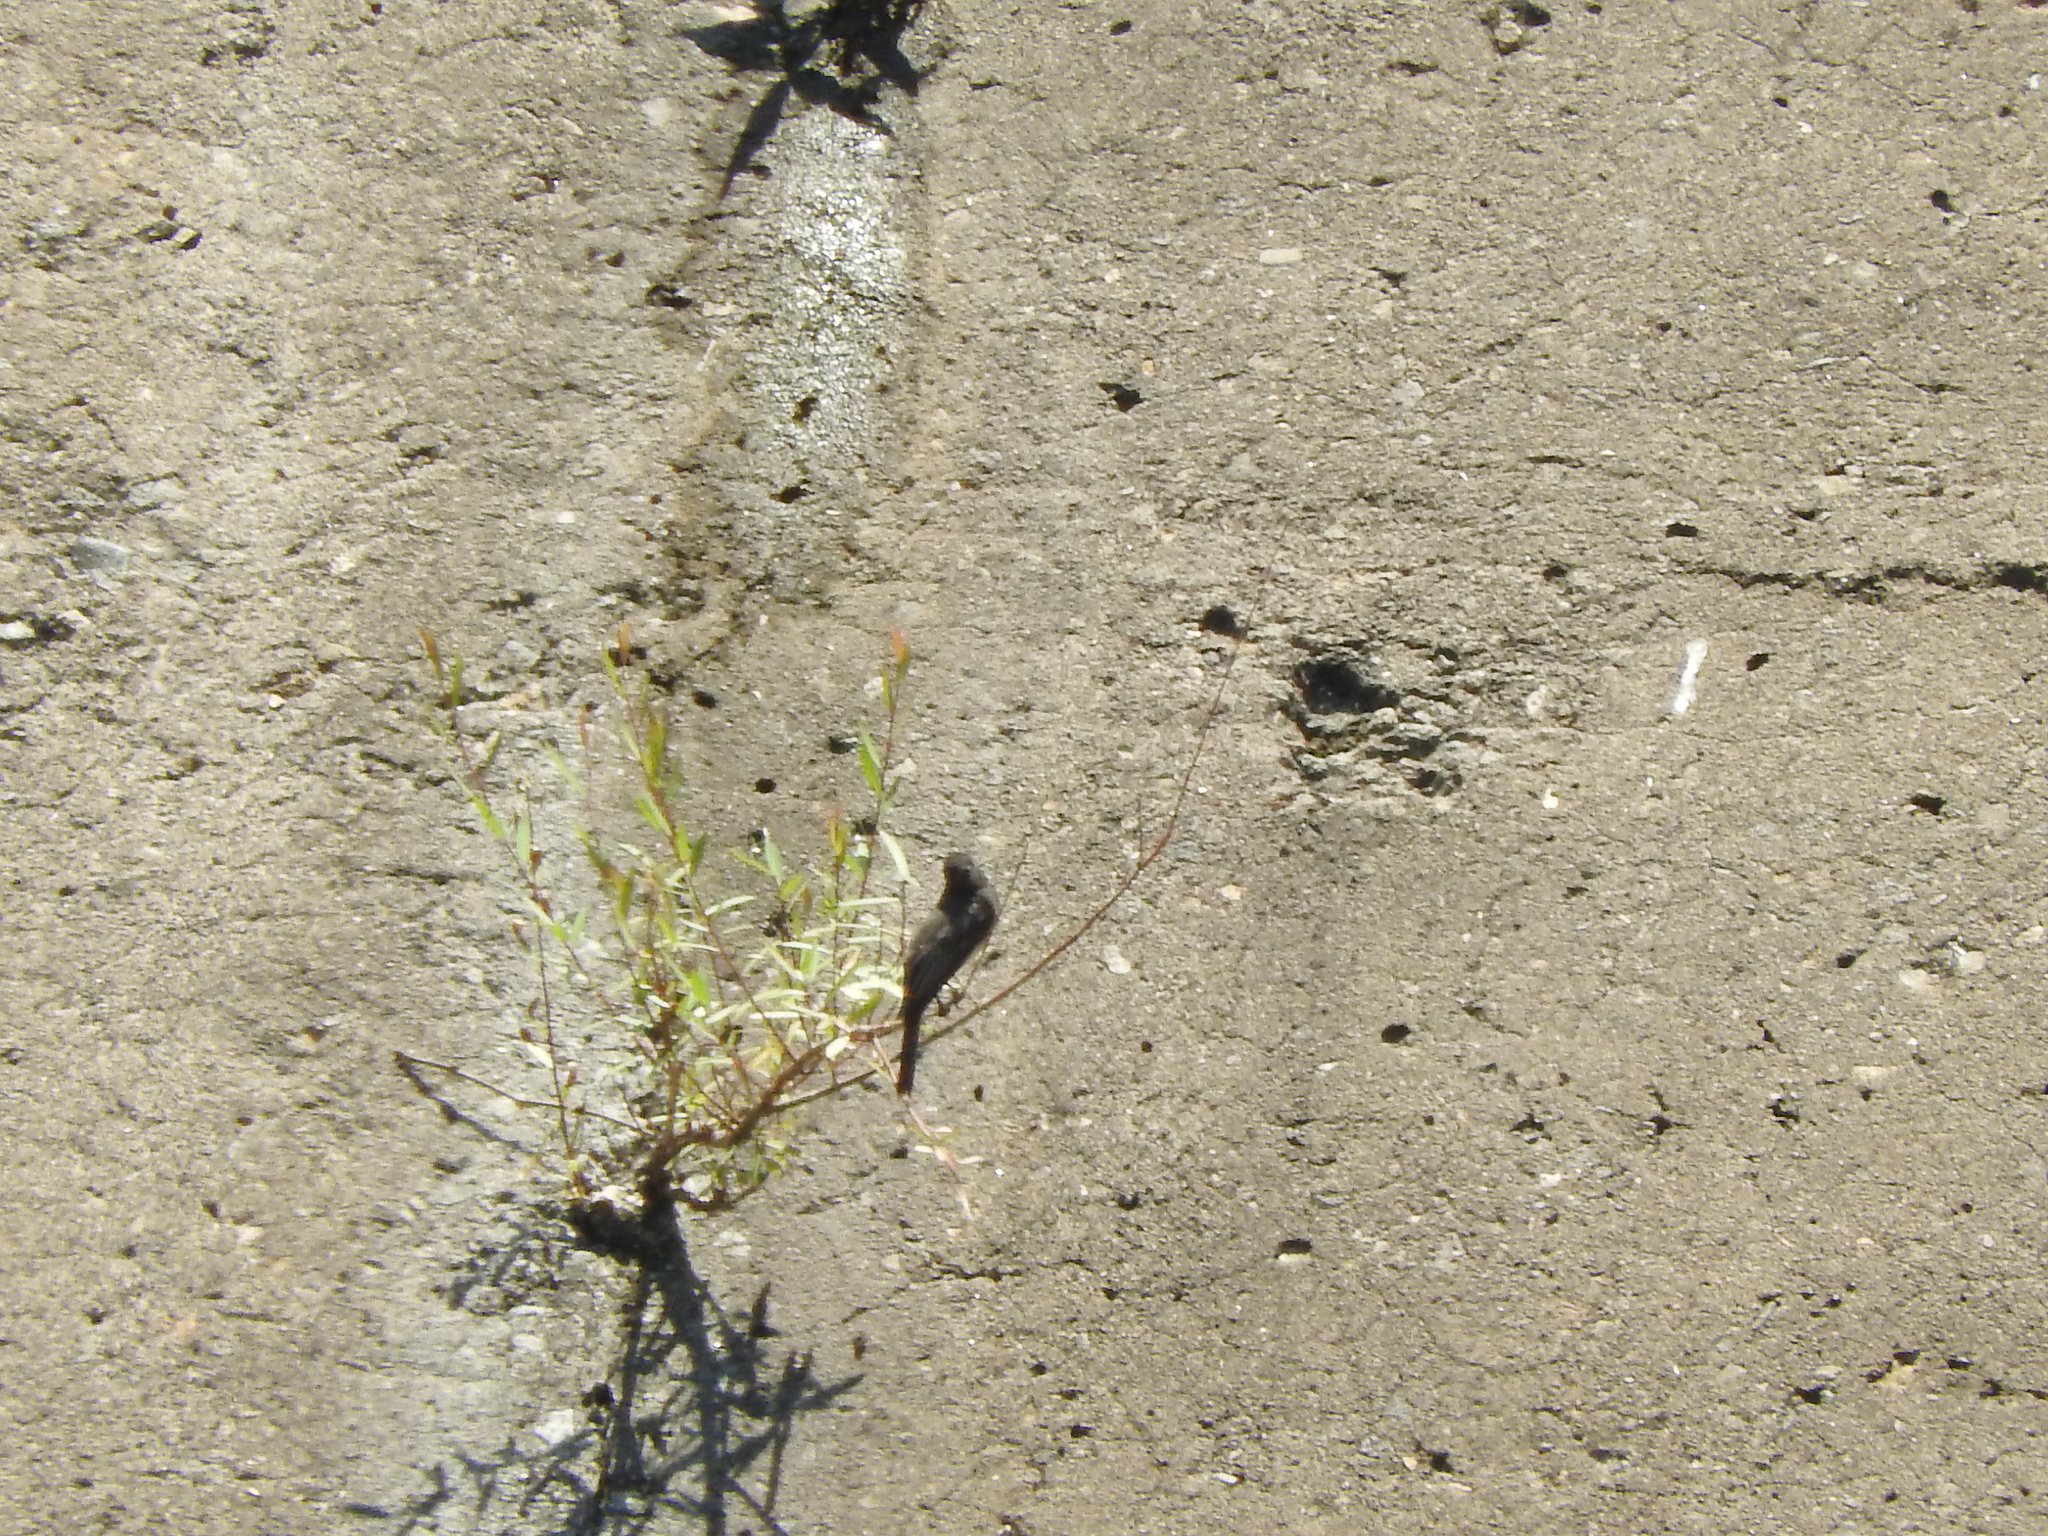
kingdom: Animalia
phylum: Chordata
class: Aves
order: Passeriformes
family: Tyrannidae
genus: Sayornis
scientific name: Sayornis nigricans
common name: Black phoebe
